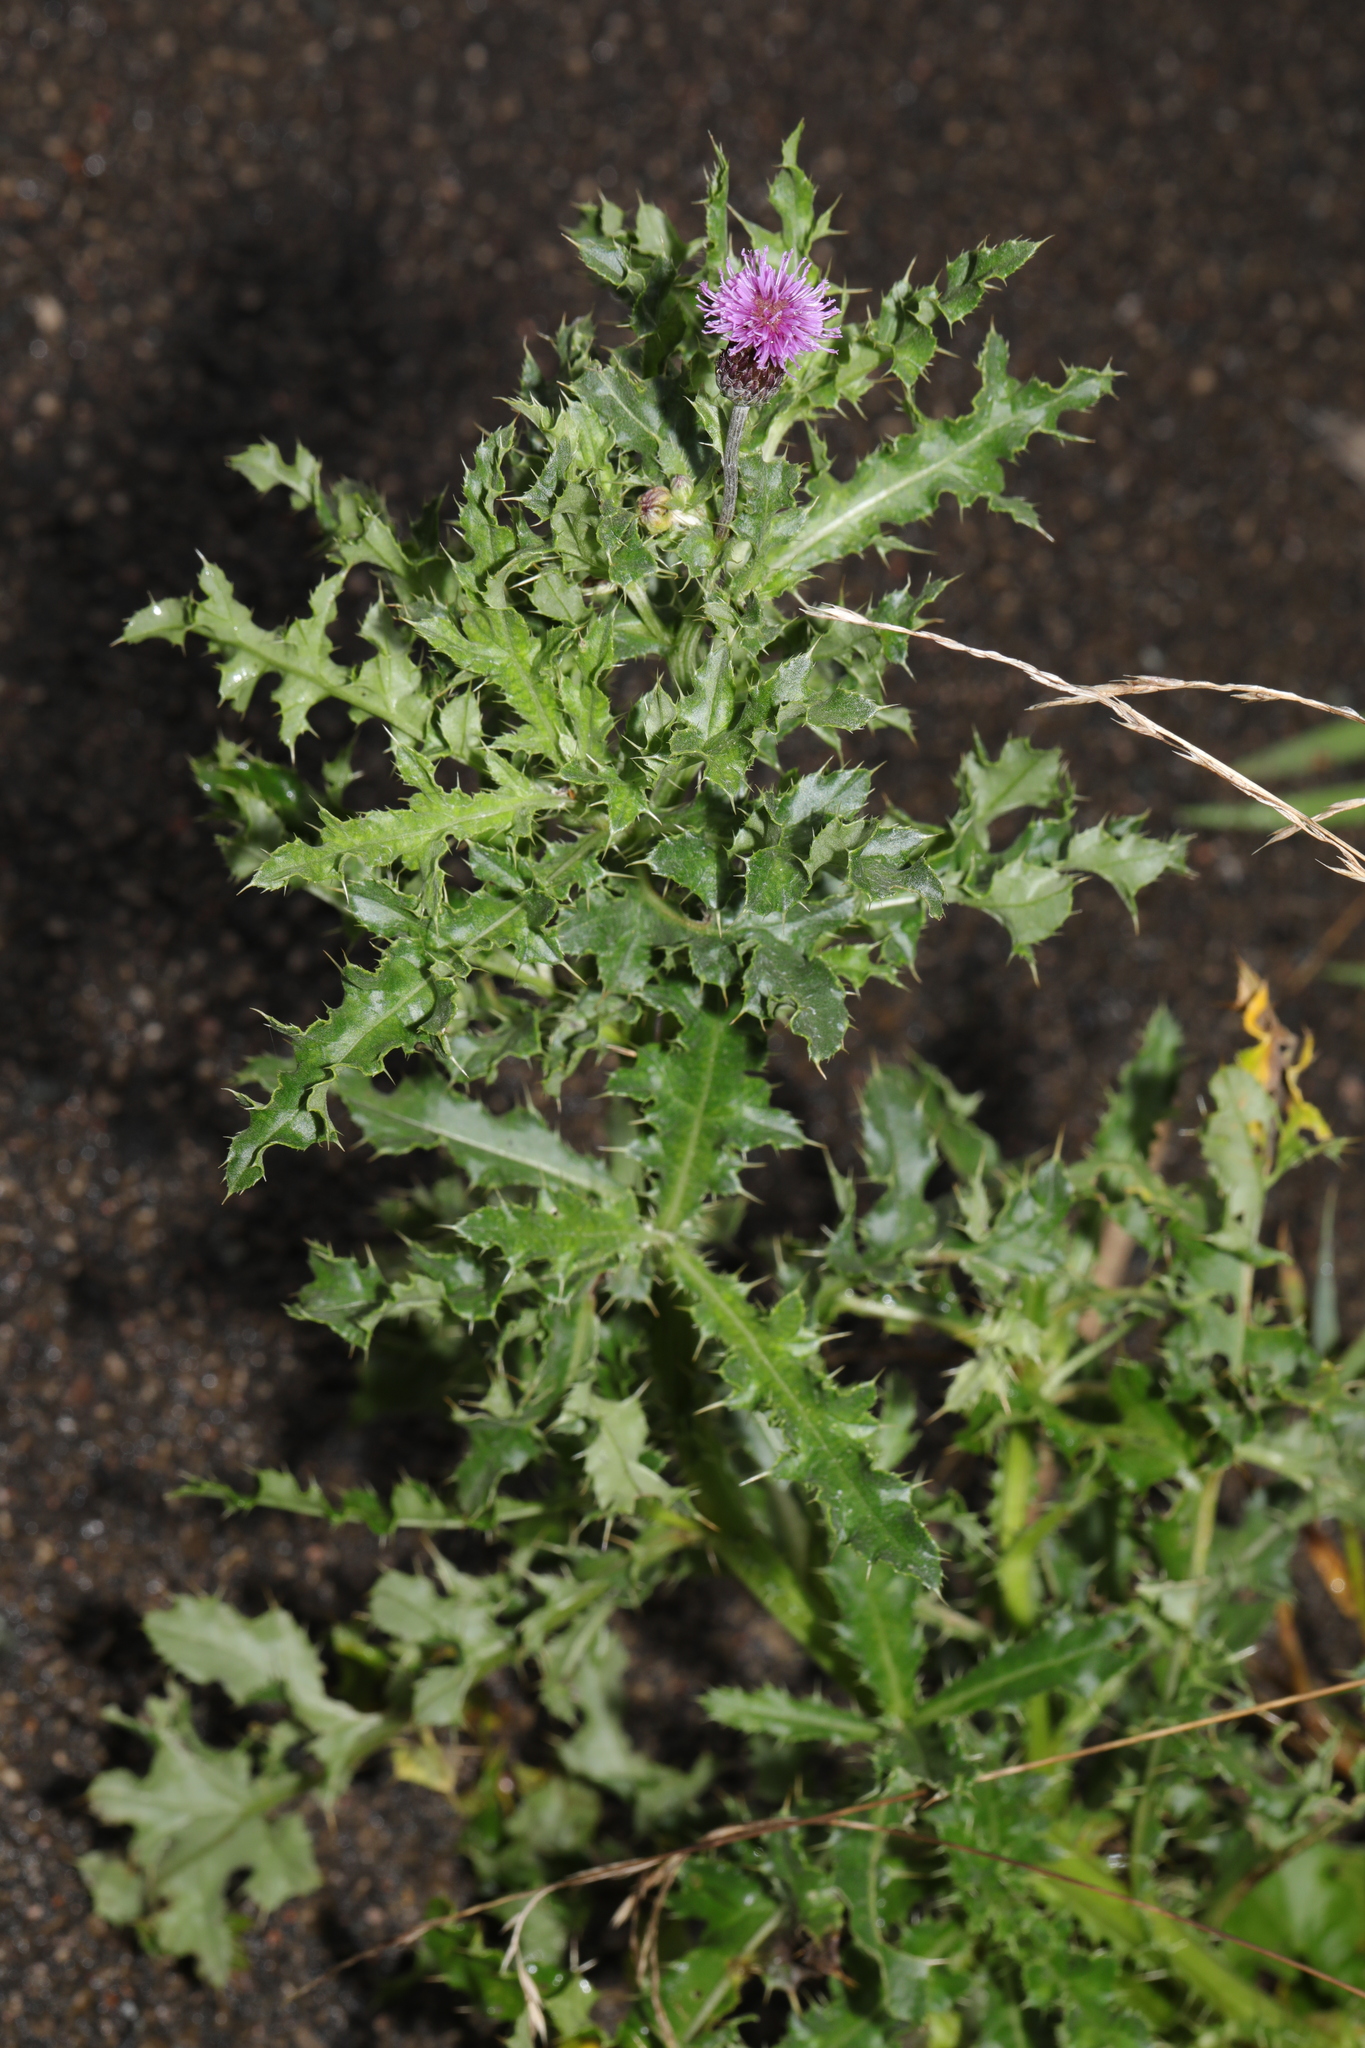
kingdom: Plantae
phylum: Tracheophyta
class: Magnoliopsida
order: Asterales
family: Asteraceae
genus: Cirsium
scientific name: Cirsium arvense
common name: Creeping thistle
